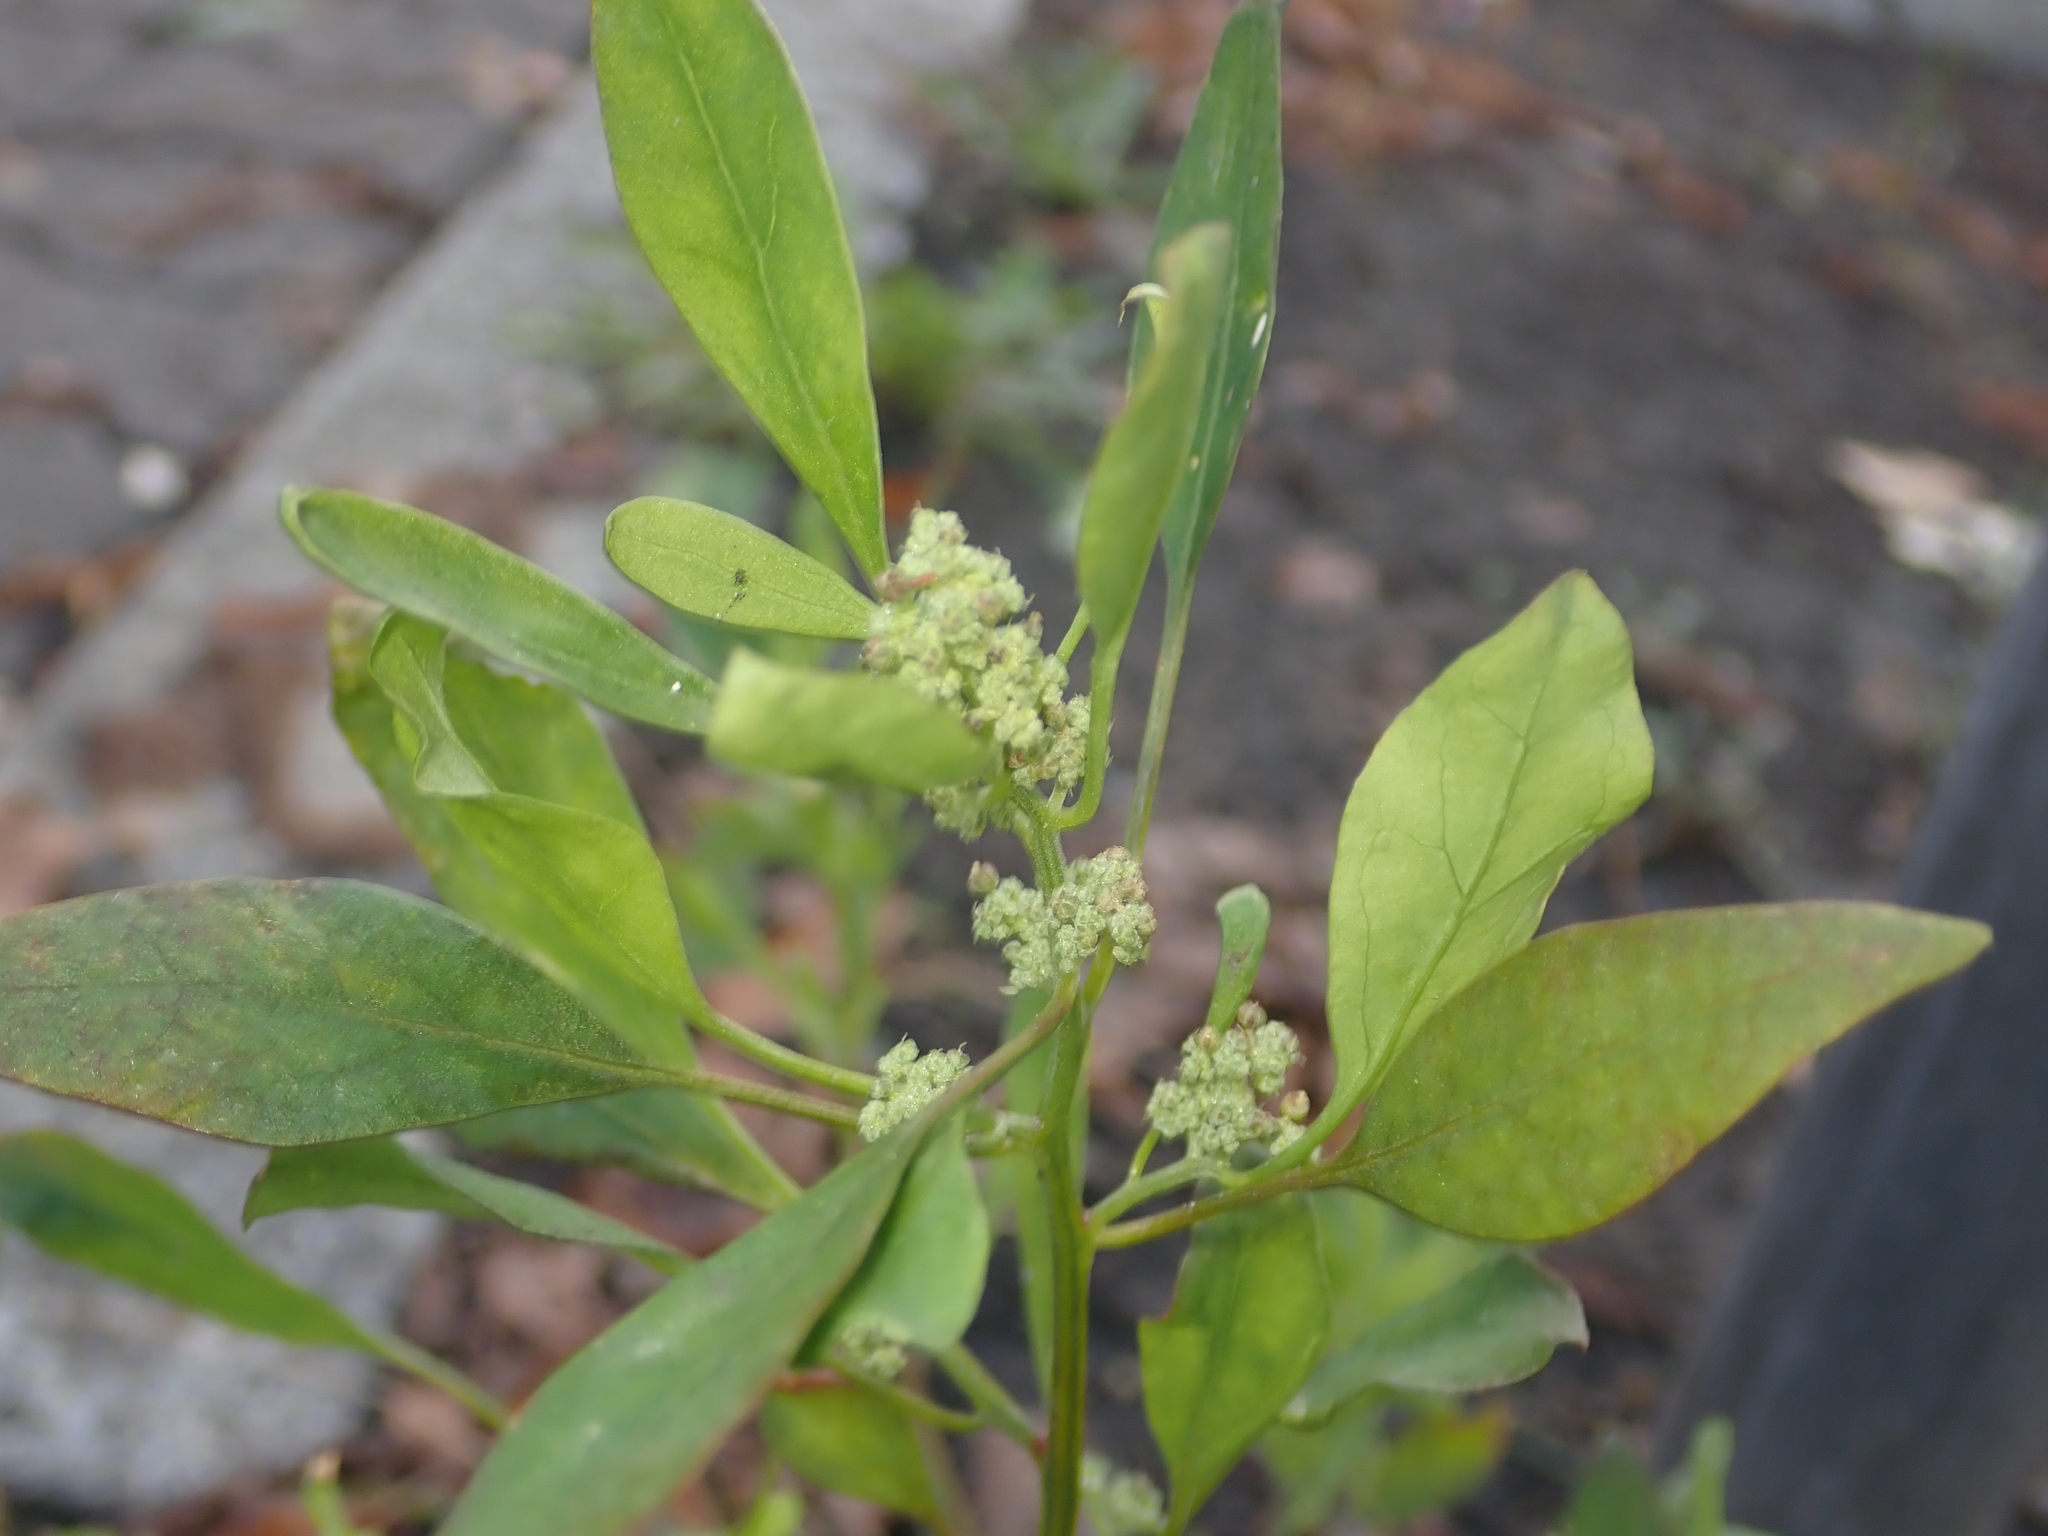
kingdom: Plantae
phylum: Tracheophyta
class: Magnoliopsida
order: Caryophyllales
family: Amaranthaceae
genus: Chenopodium
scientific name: Chenopodium album
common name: Fat-hen
